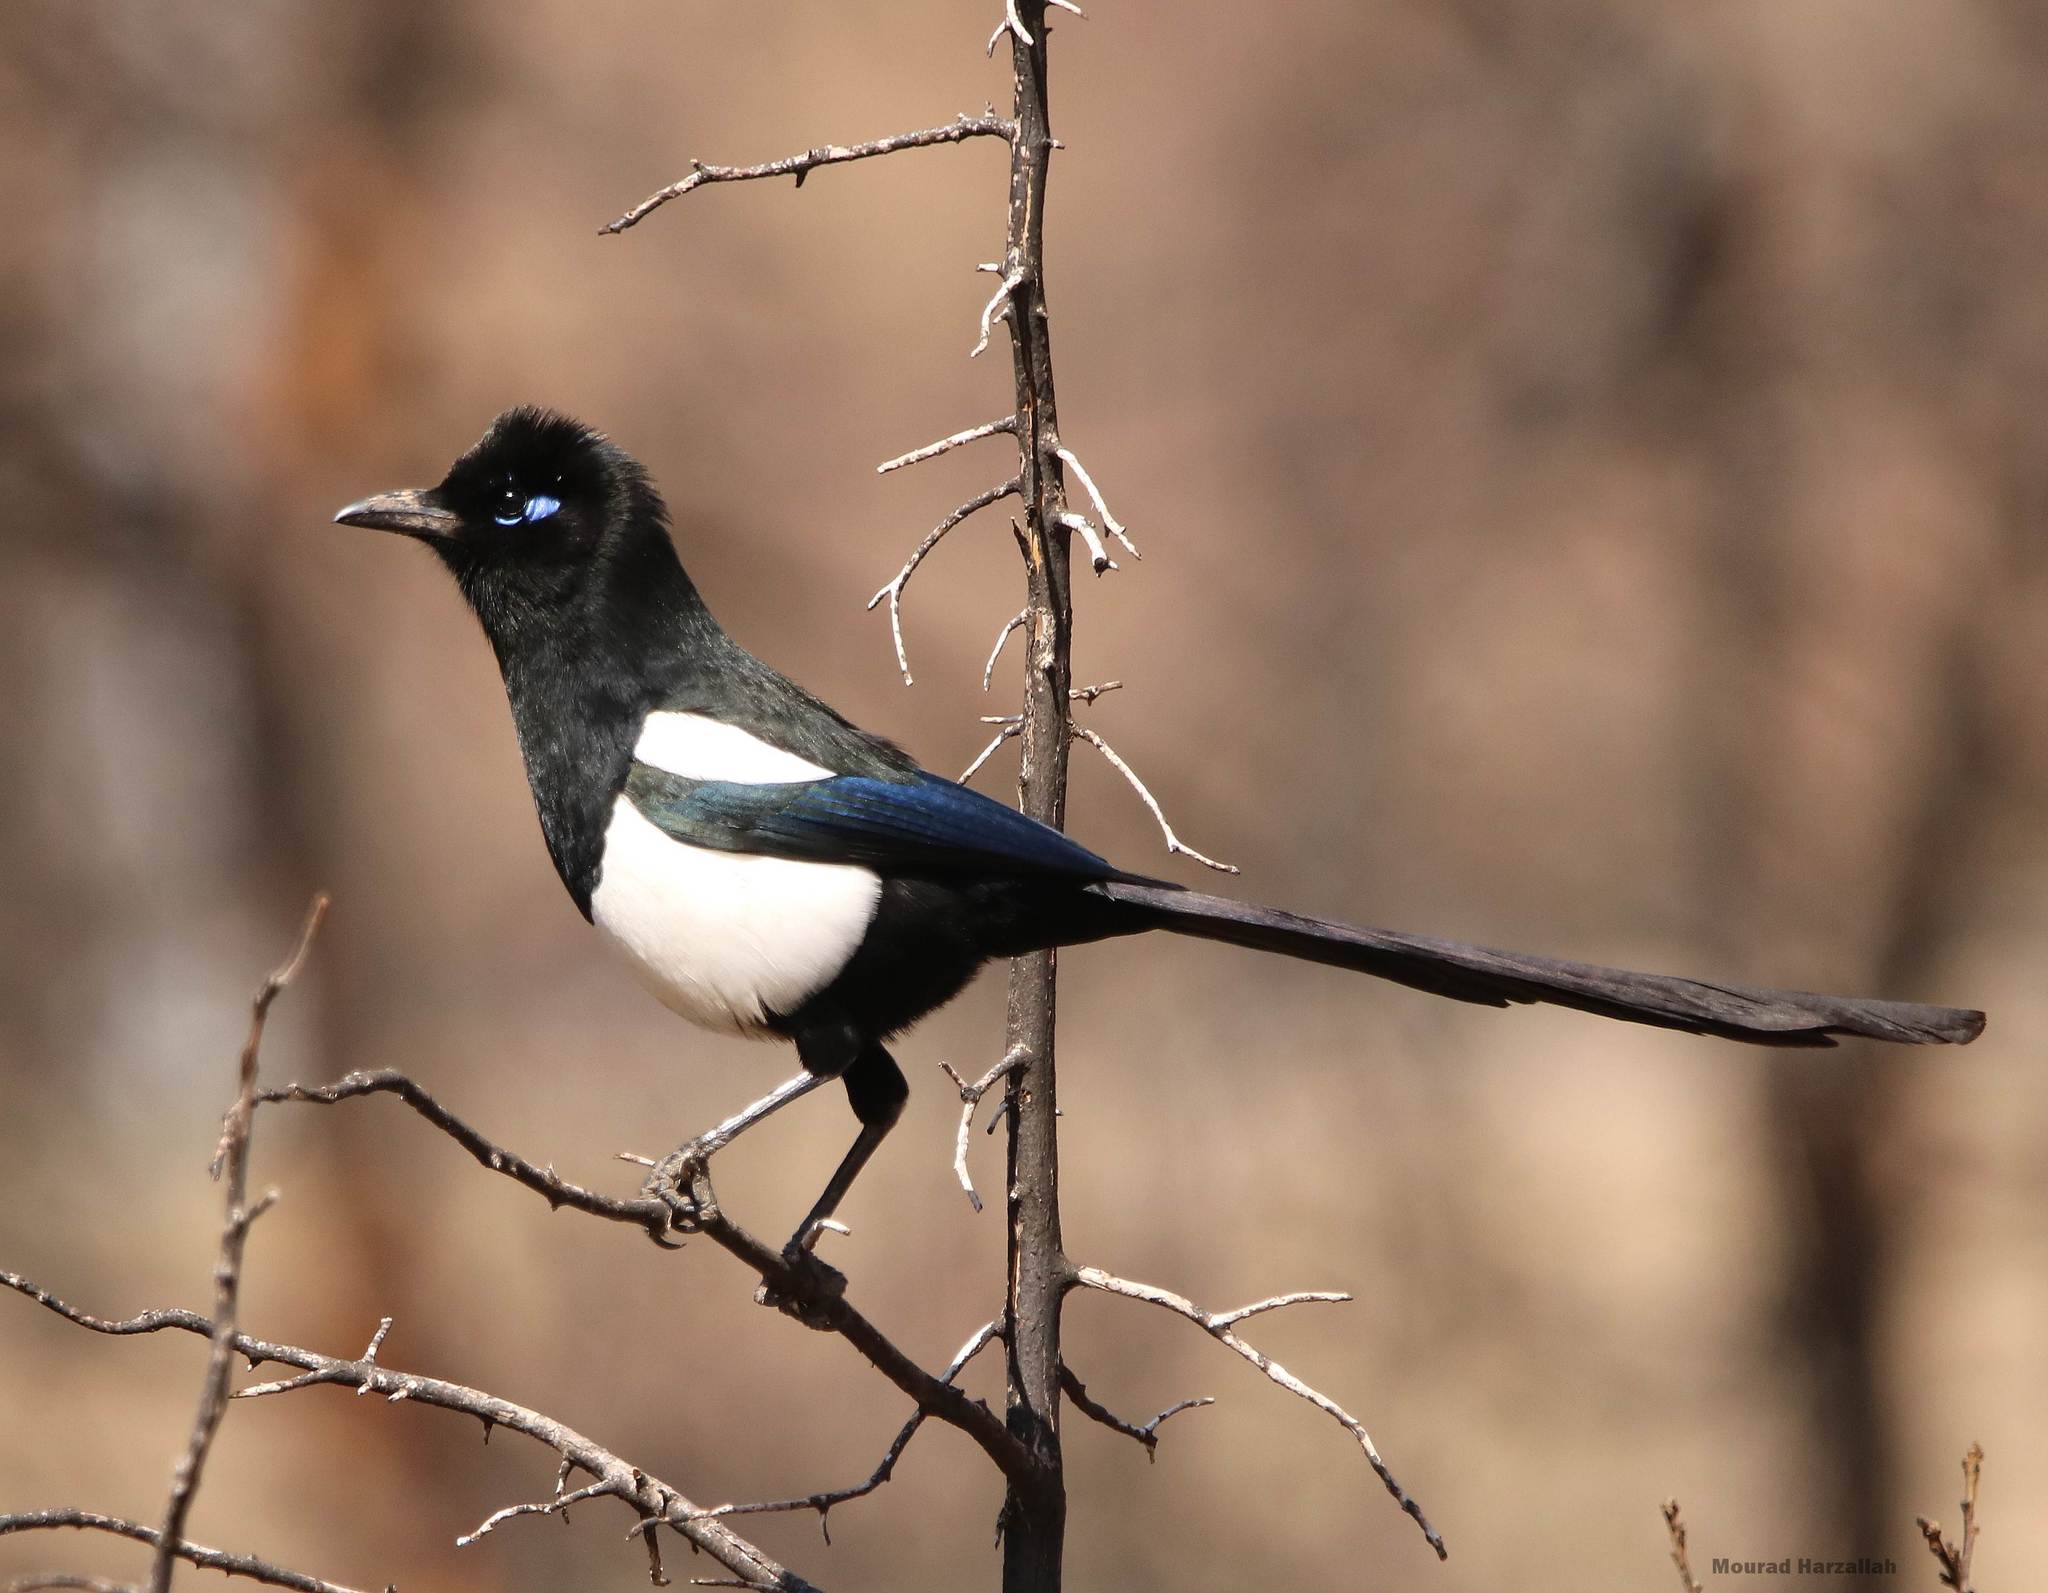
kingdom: Animalia
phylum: Chordata
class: Aves
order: Passeriformes
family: Corvidae
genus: Pica
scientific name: Pica mauritanica
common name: Maghreb magpie
